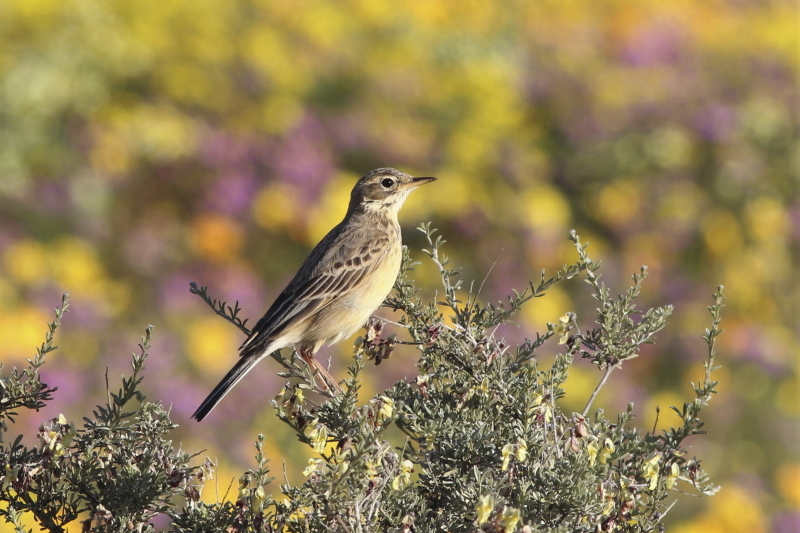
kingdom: Animalia
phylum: Chordata
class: Aves
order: Passeriformes
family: Motacillidae
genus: Anthus
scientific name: Anthus cinnamomeus
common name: African pipit
